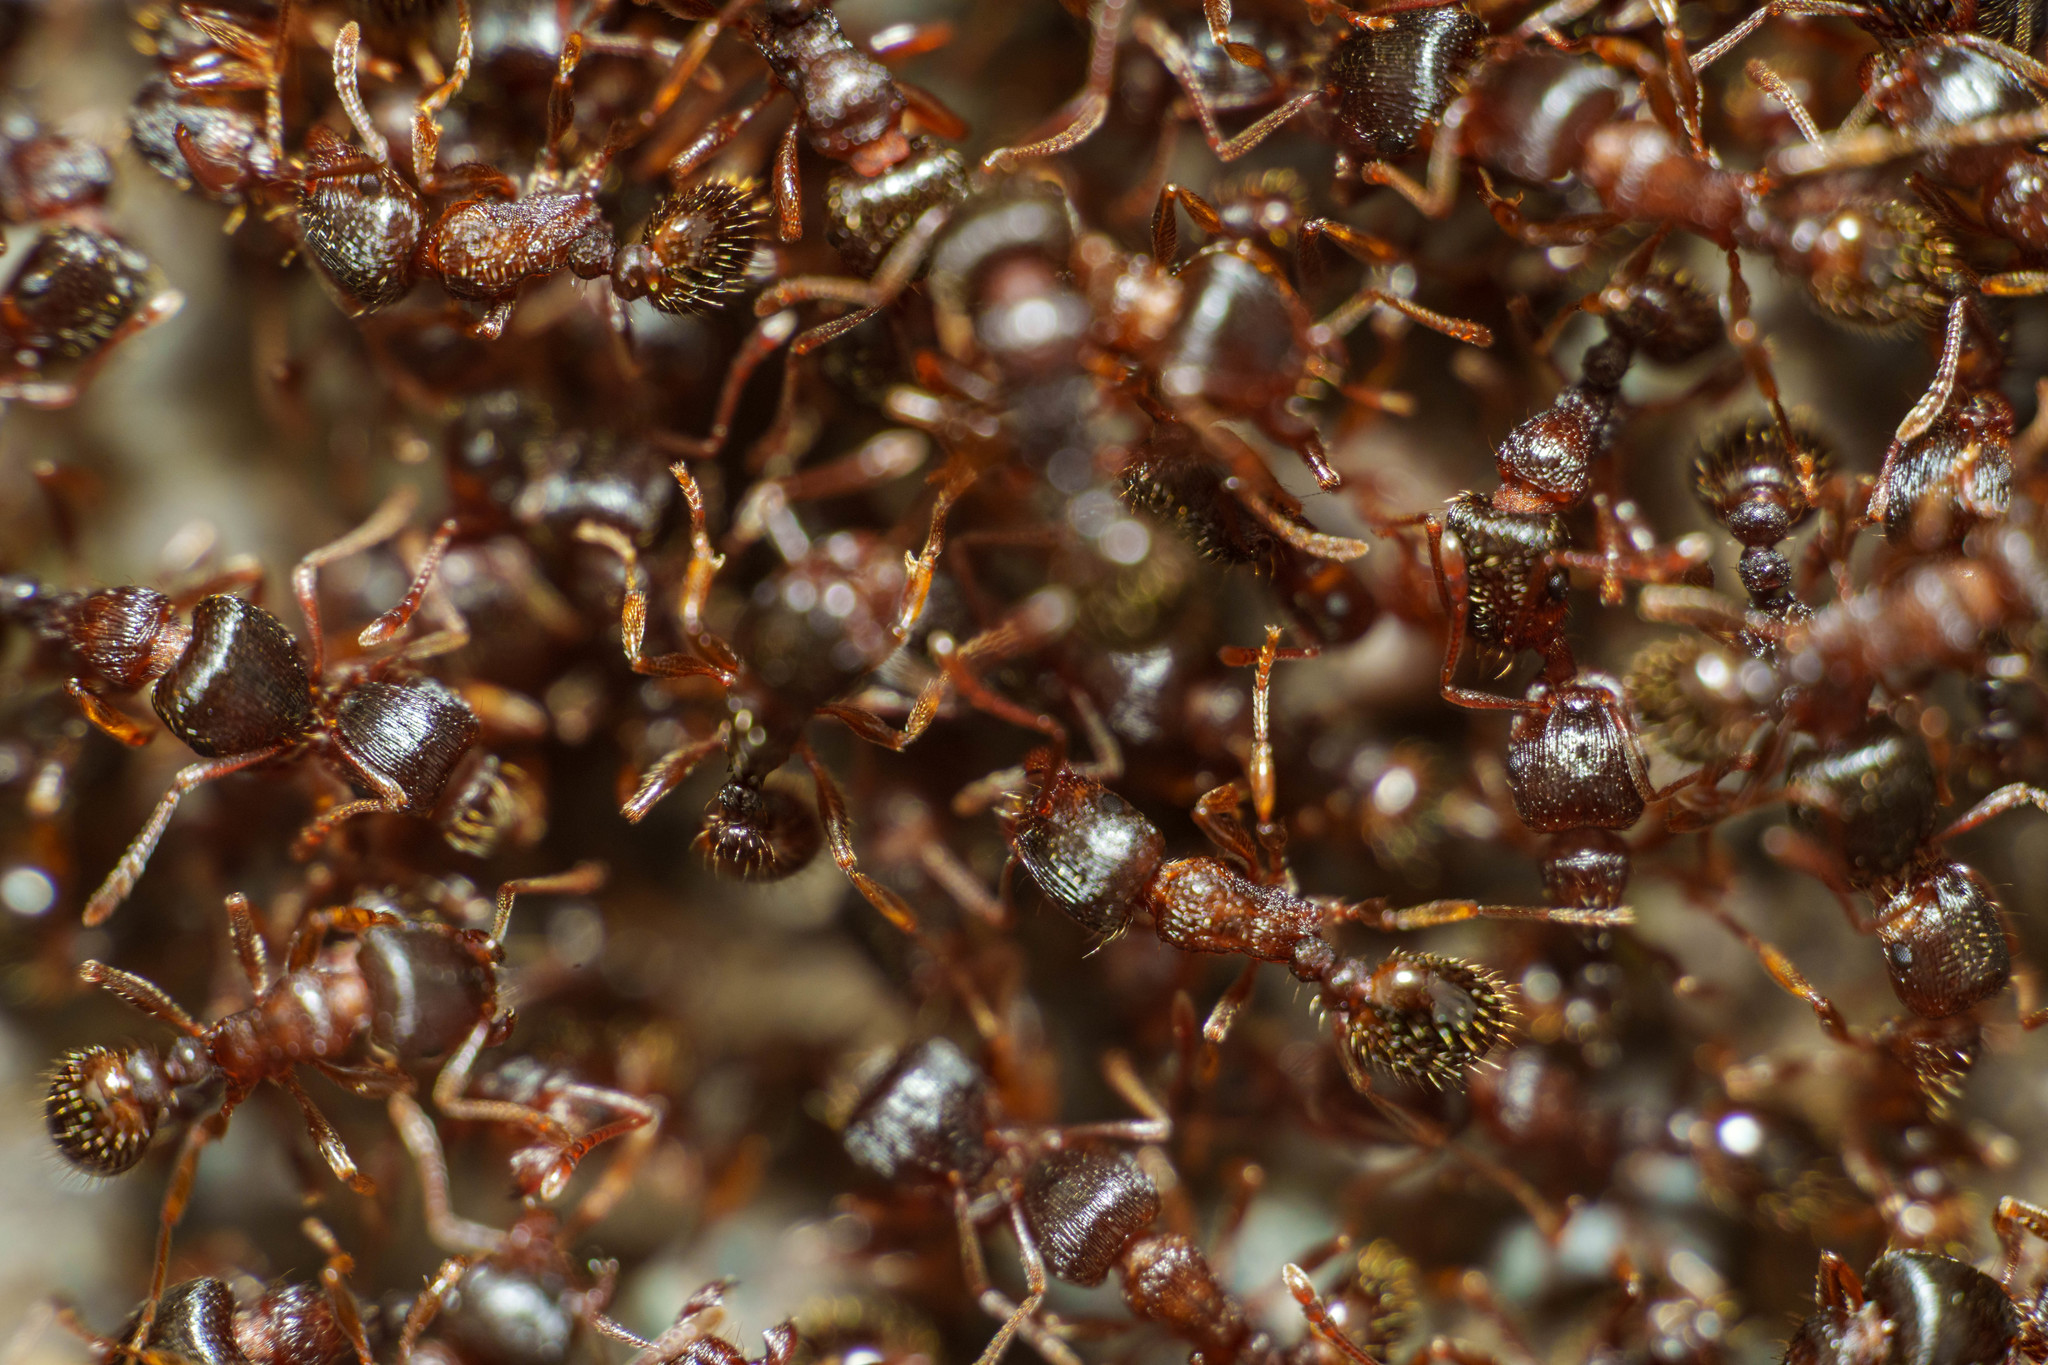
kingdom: Animalia
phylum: Arthropoda
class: Insecta
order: Hymenoptera
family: Formicidae
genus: Tetramorium
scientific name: Tetramorium immigrans
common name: Pavement ant
